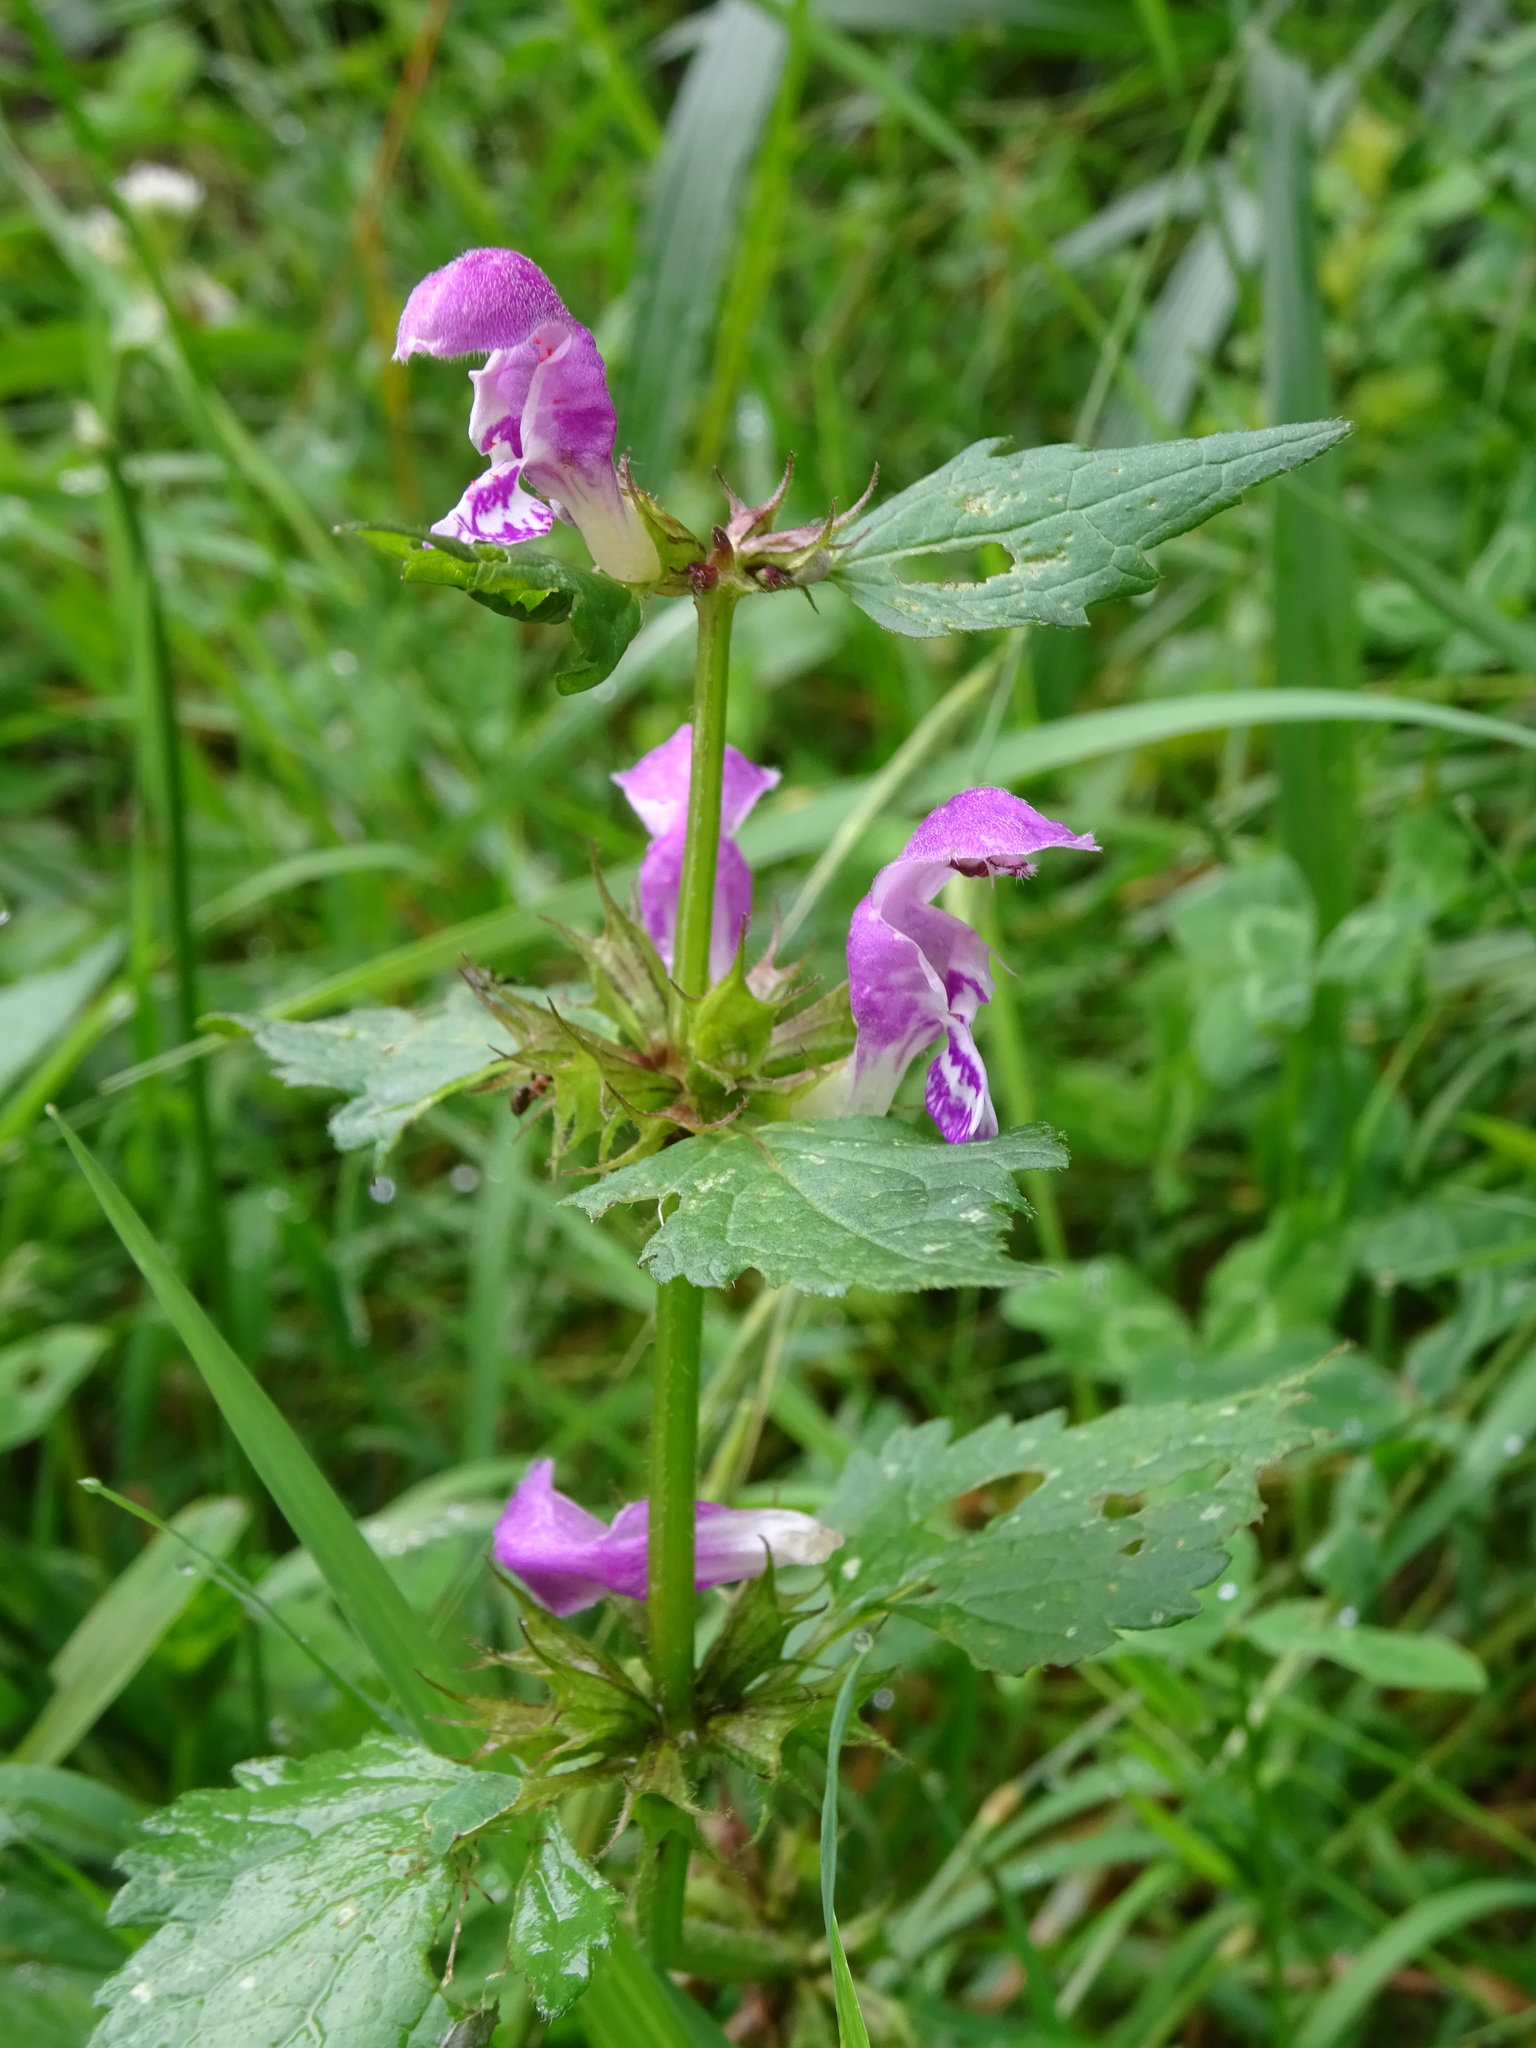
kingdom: Plantae
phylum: Tracheophyta
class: Magnoliopsida
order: Lamiales
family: Lamiaceae
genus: Lamium
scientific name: Lamium maculatum
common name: Spotted dead-nettle
